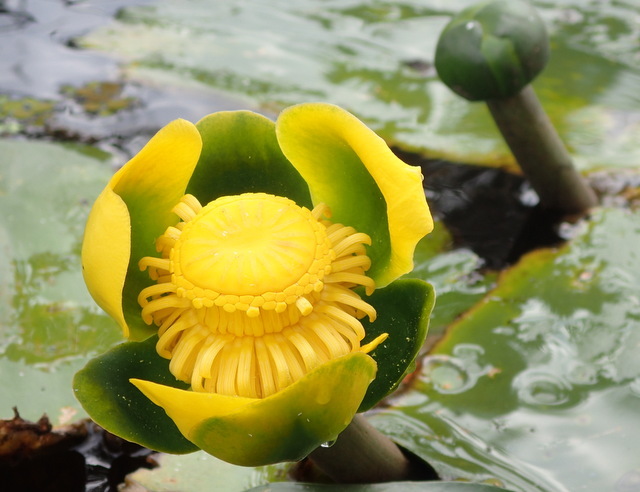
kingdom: Plantae
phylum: Tracheophyta
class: Magnoliopsida
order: Nymphaeales
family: Nymphaeaceae
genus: Nuphar
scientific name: Nuphar advena
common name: Spatter-dock
